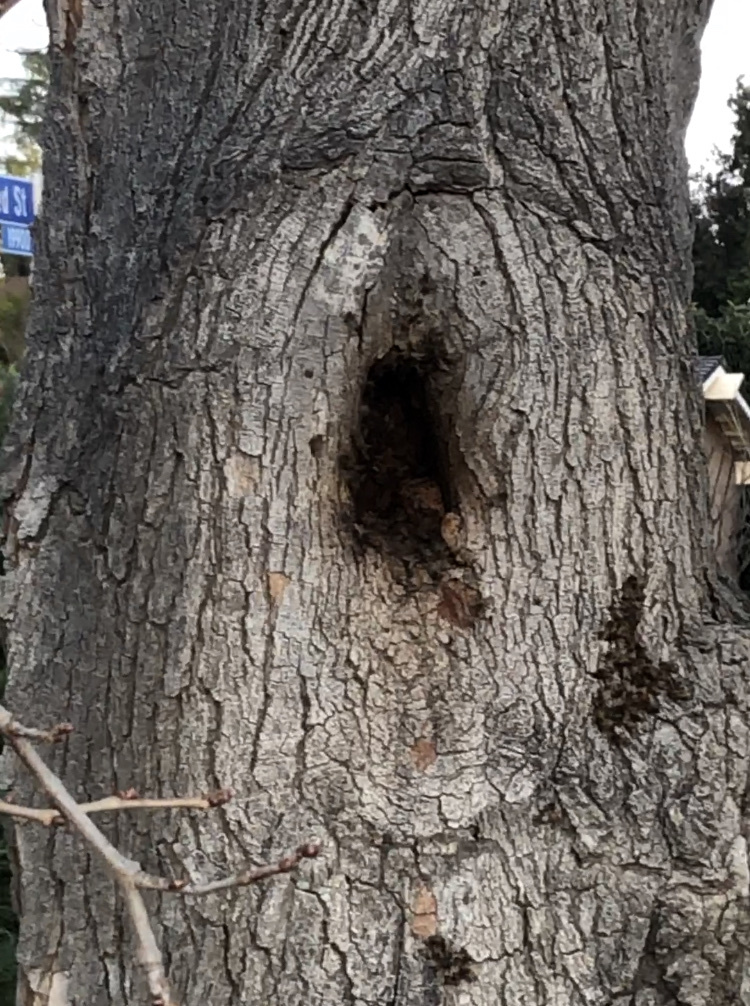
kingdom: Animalia
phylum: Arthropoda
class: Insecta
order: Hymenoptera
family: Apidae
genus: Apis
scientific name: Apis mellifera
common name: Honey bee
